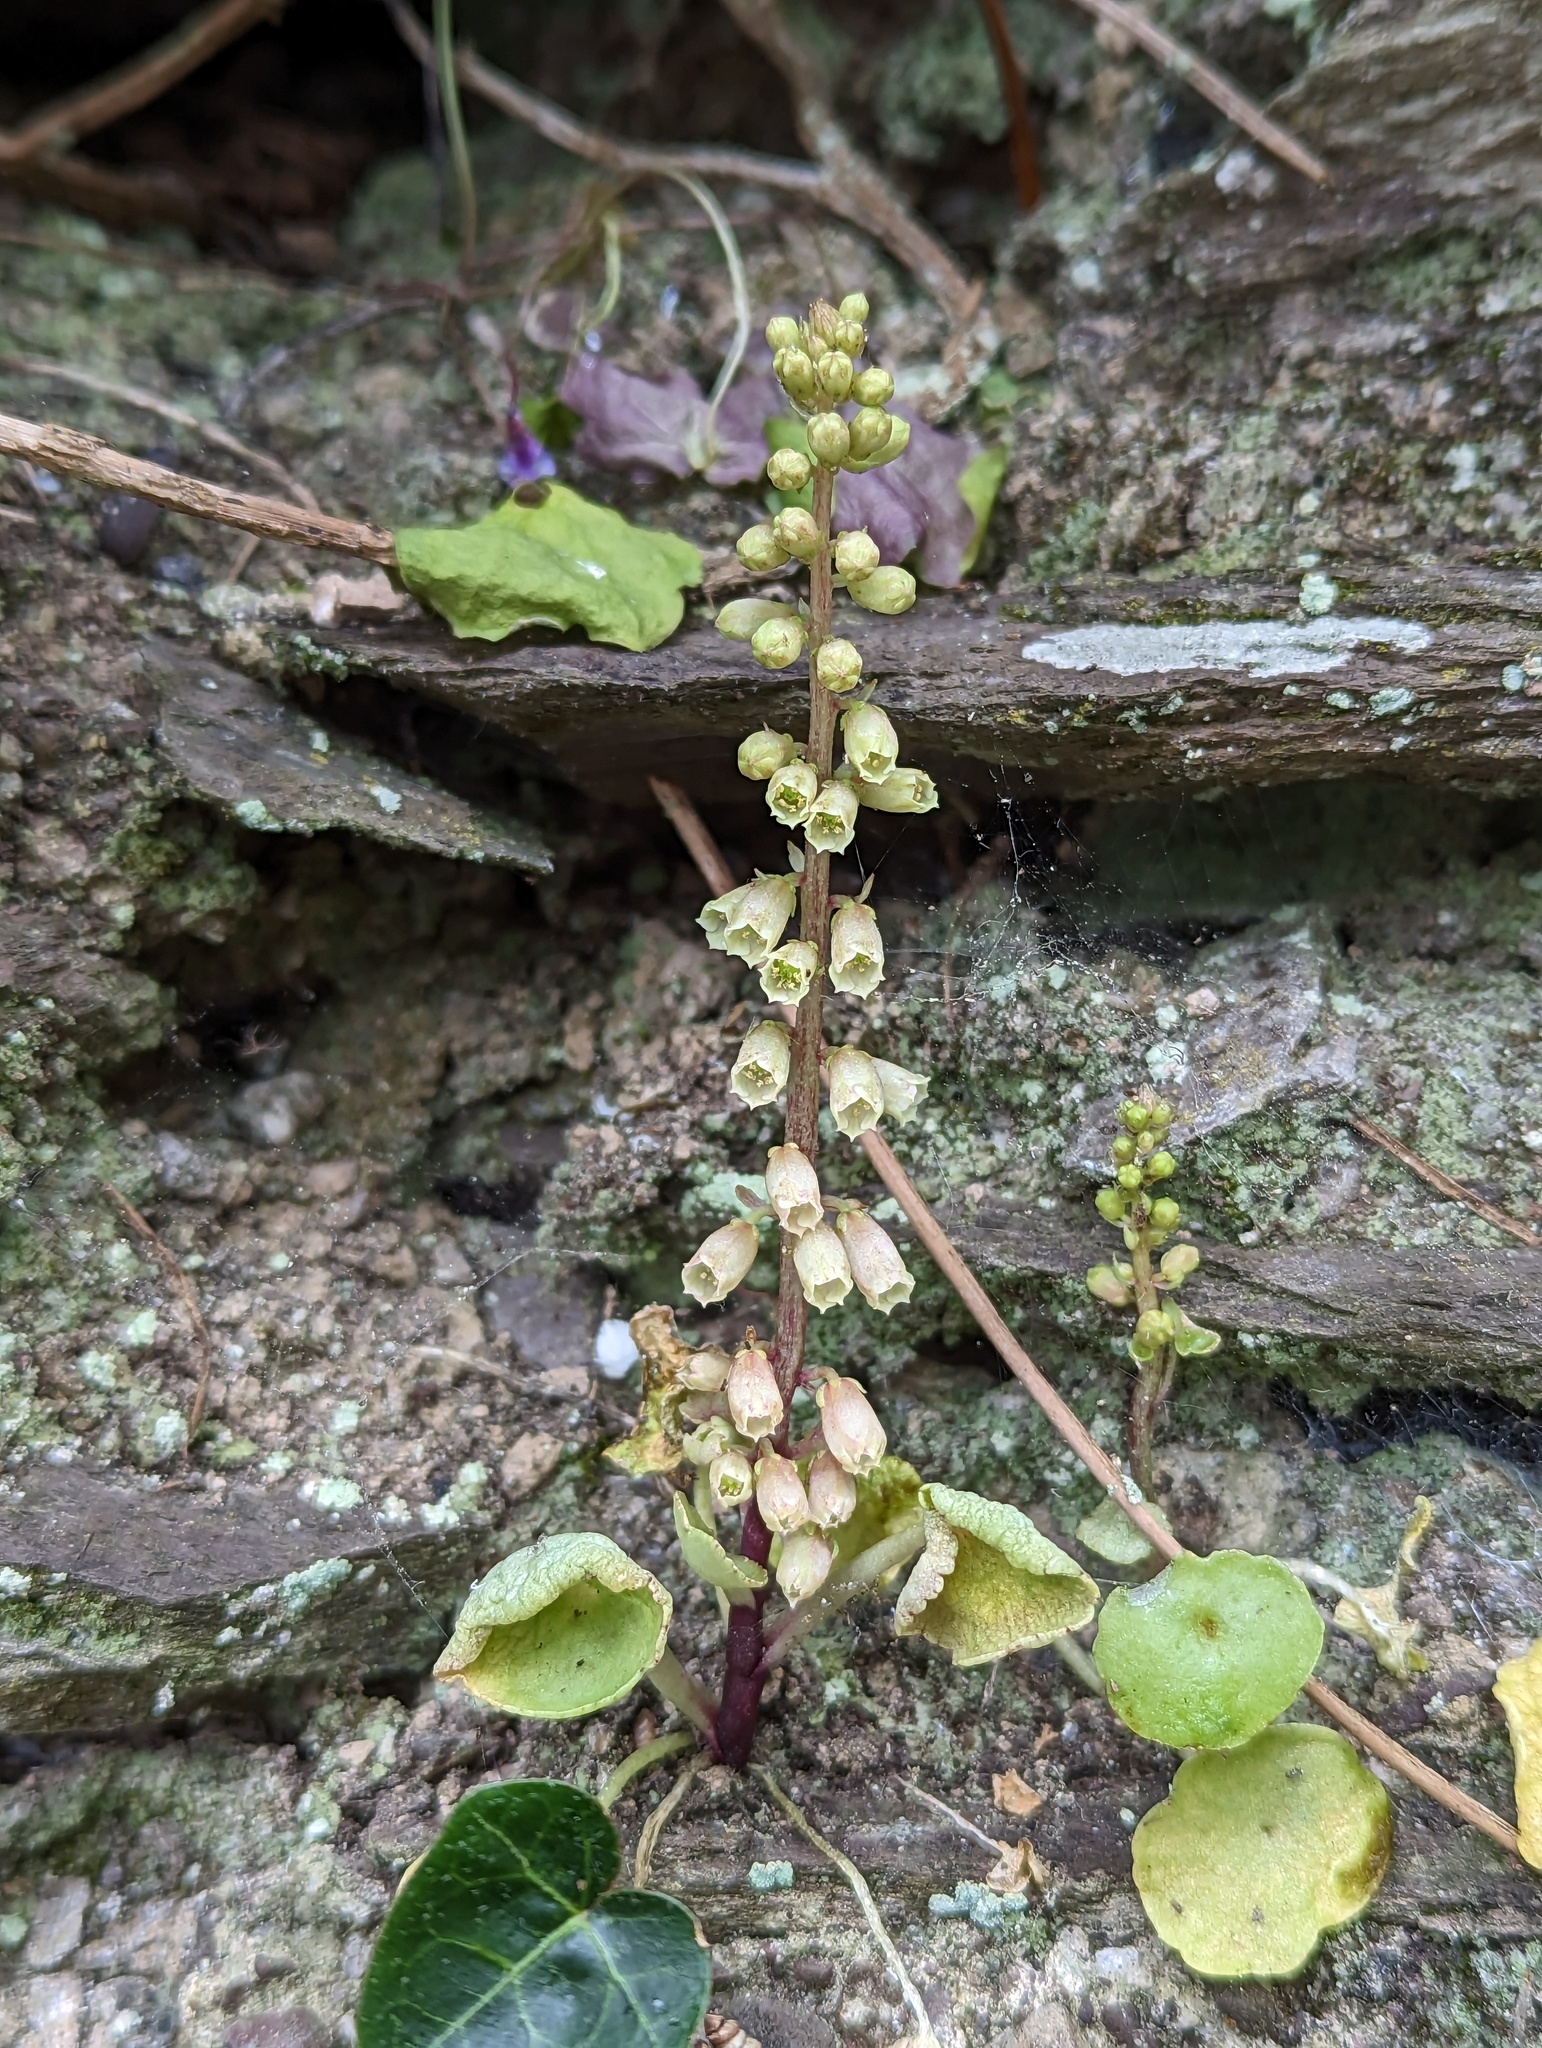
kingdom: Plantae
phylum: Tracheophyta
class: Magnoliopsida
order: Saxifragales
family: Crassulaceae
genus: Umbilicus
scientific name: Umbilicus rupestris
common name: Navelwort
